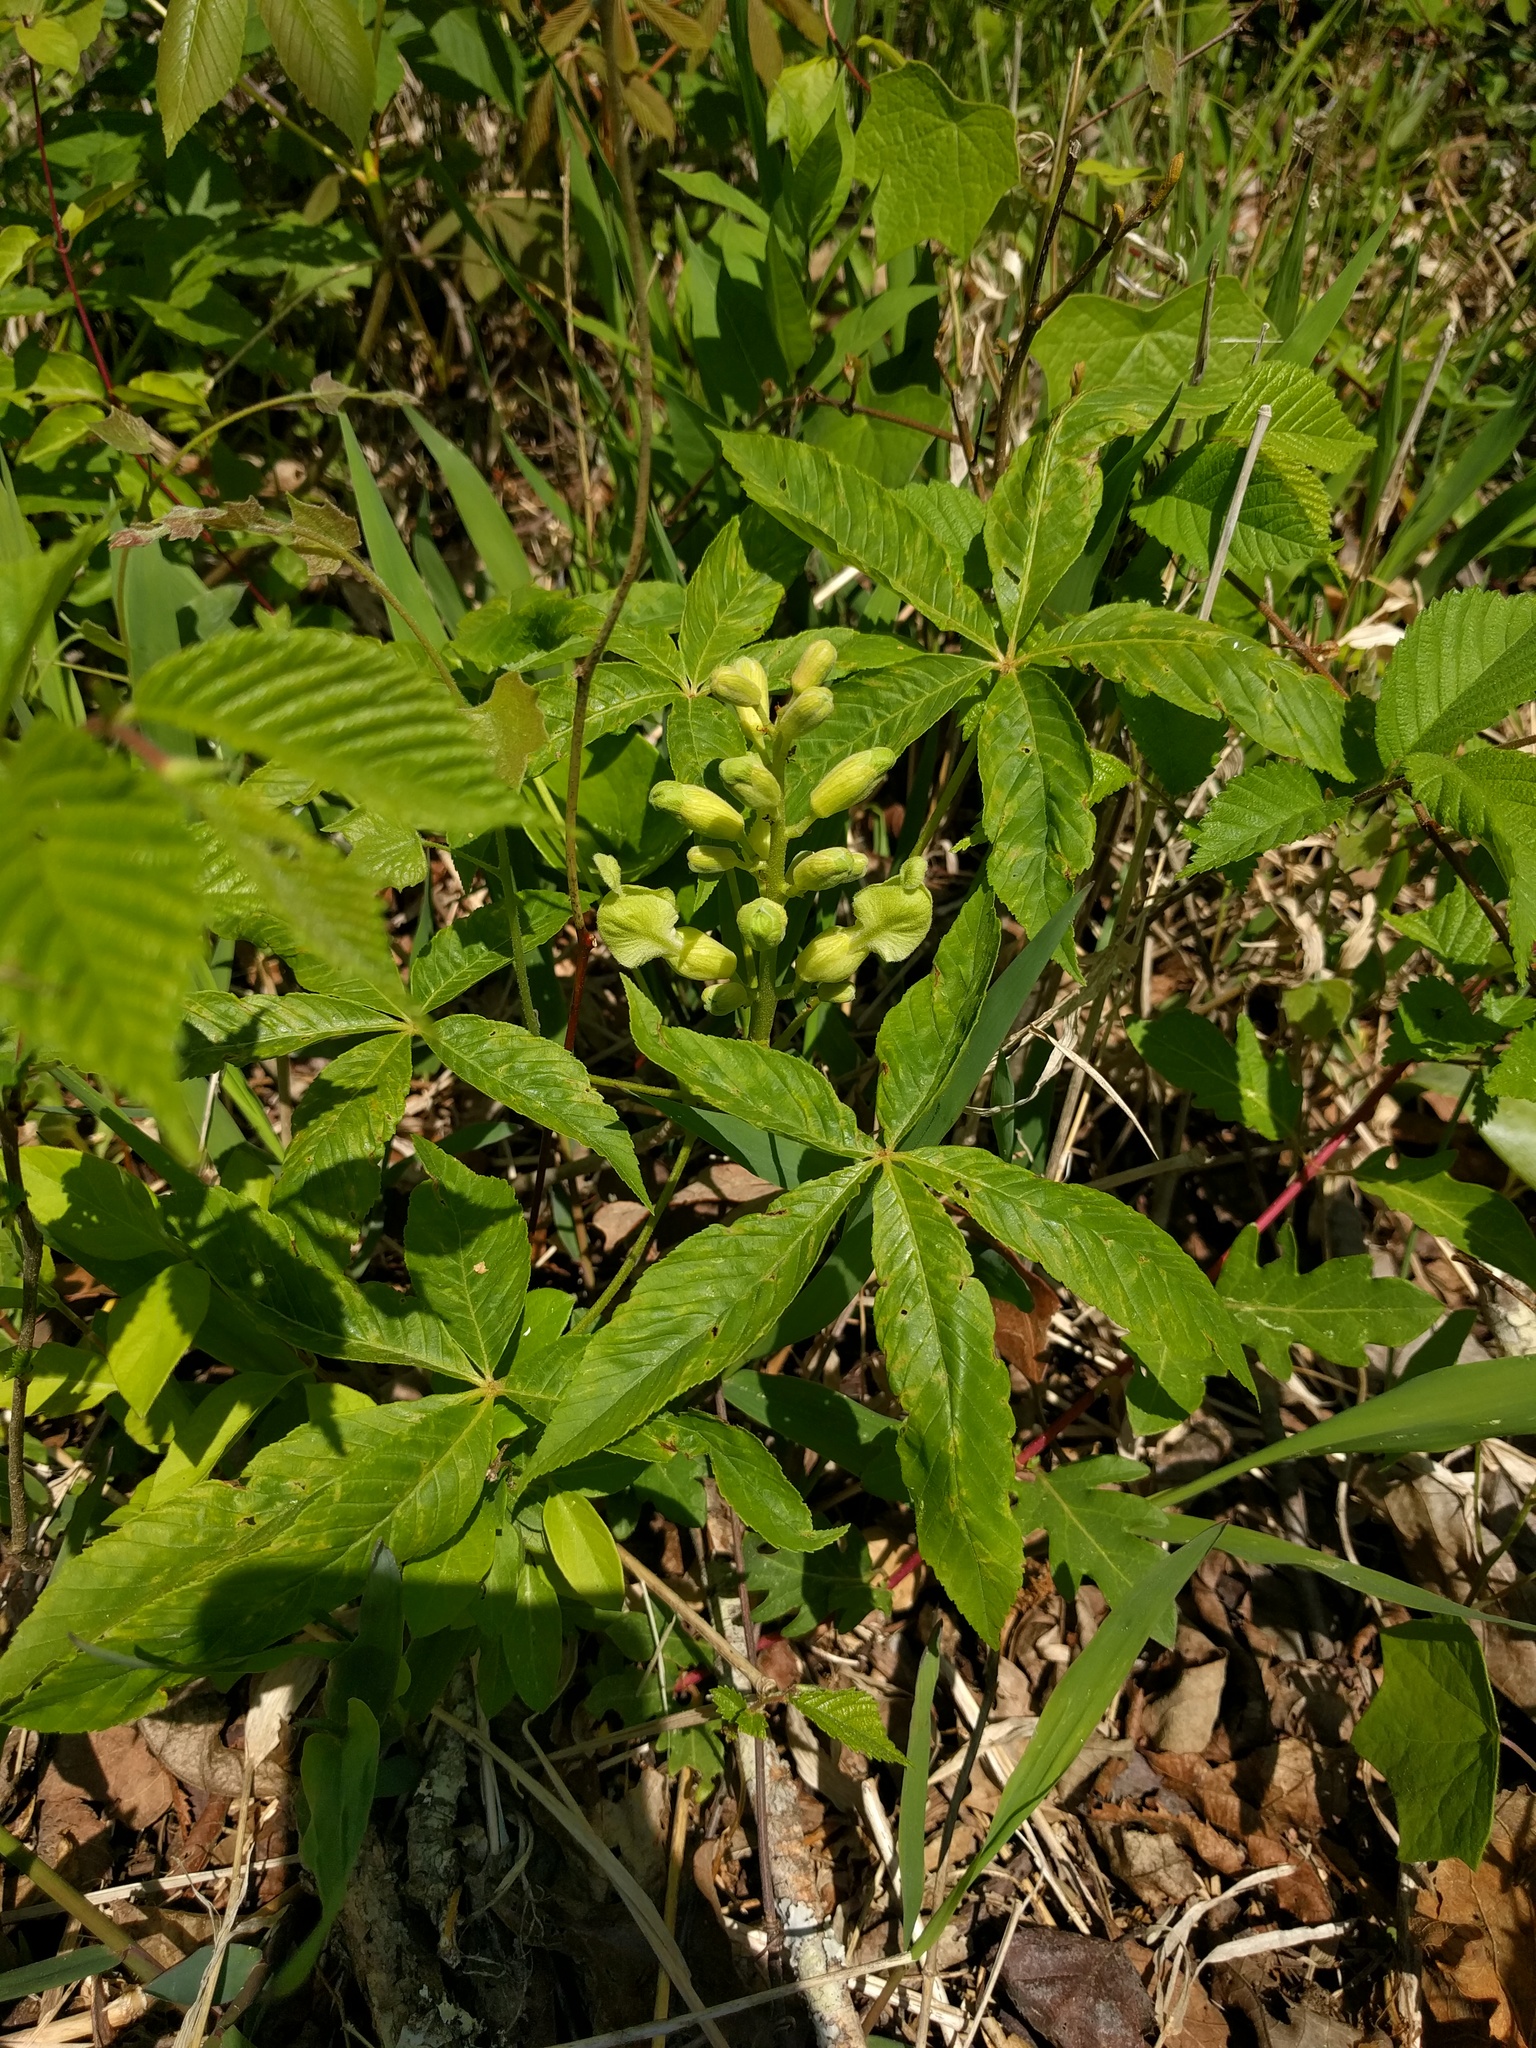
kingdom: Plantae
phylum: Tracheophyta
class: Magnoliopsida
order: Sapindales
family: Sapindaceae
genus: Aesculus
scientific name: Aesculus sylvatica
